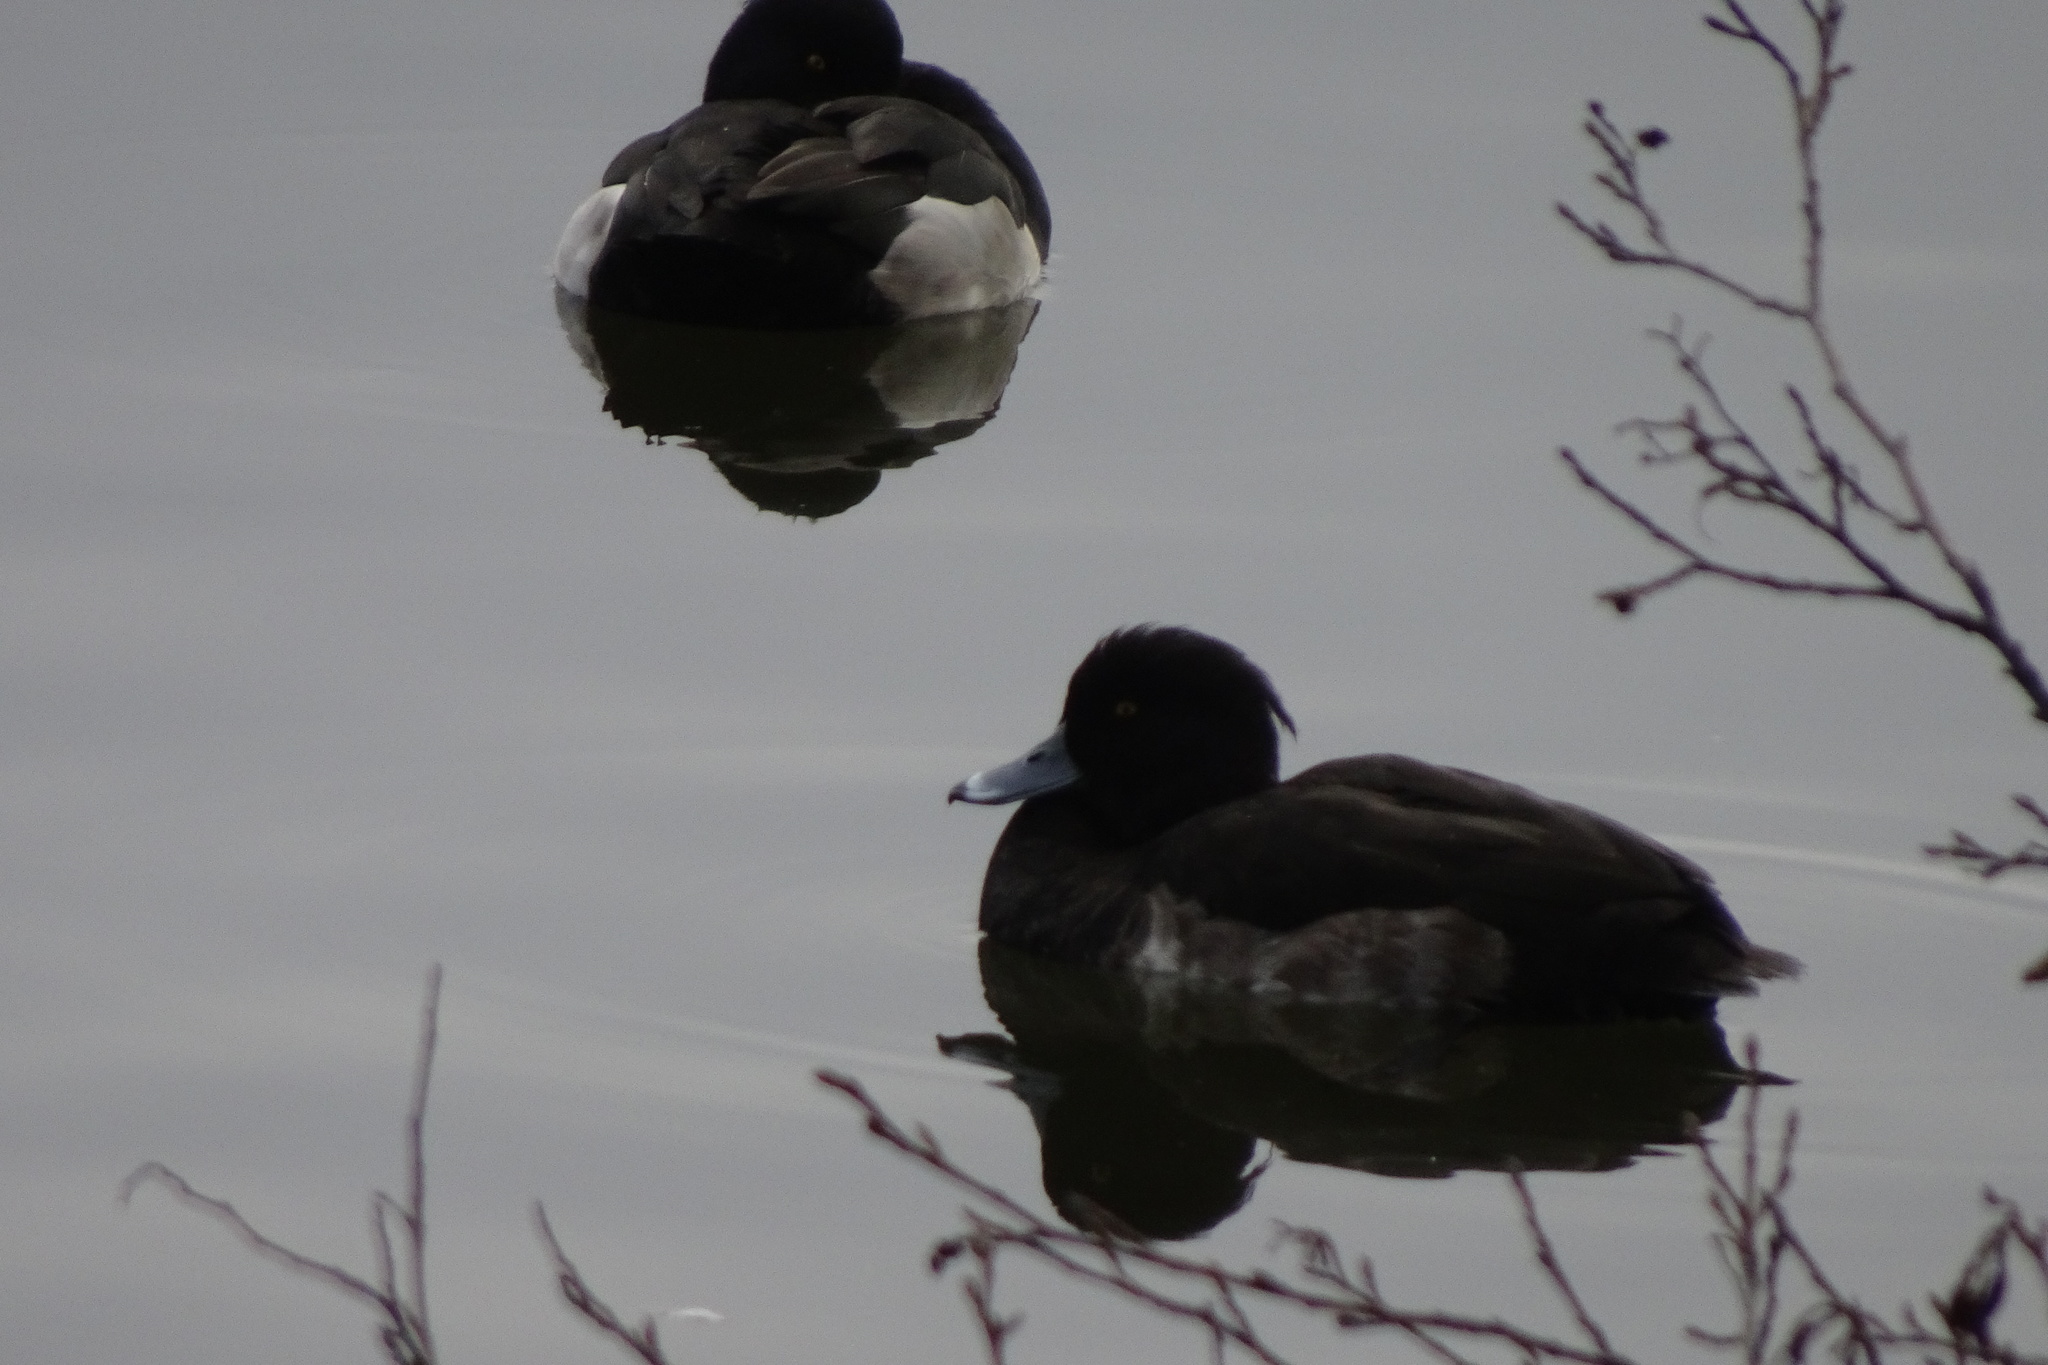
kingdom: Animalia
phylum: Chordata
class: Aves
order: Anseriformes
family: Anatidae
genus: Aythya
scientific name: Aythya fuligula
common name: Tufted duck
